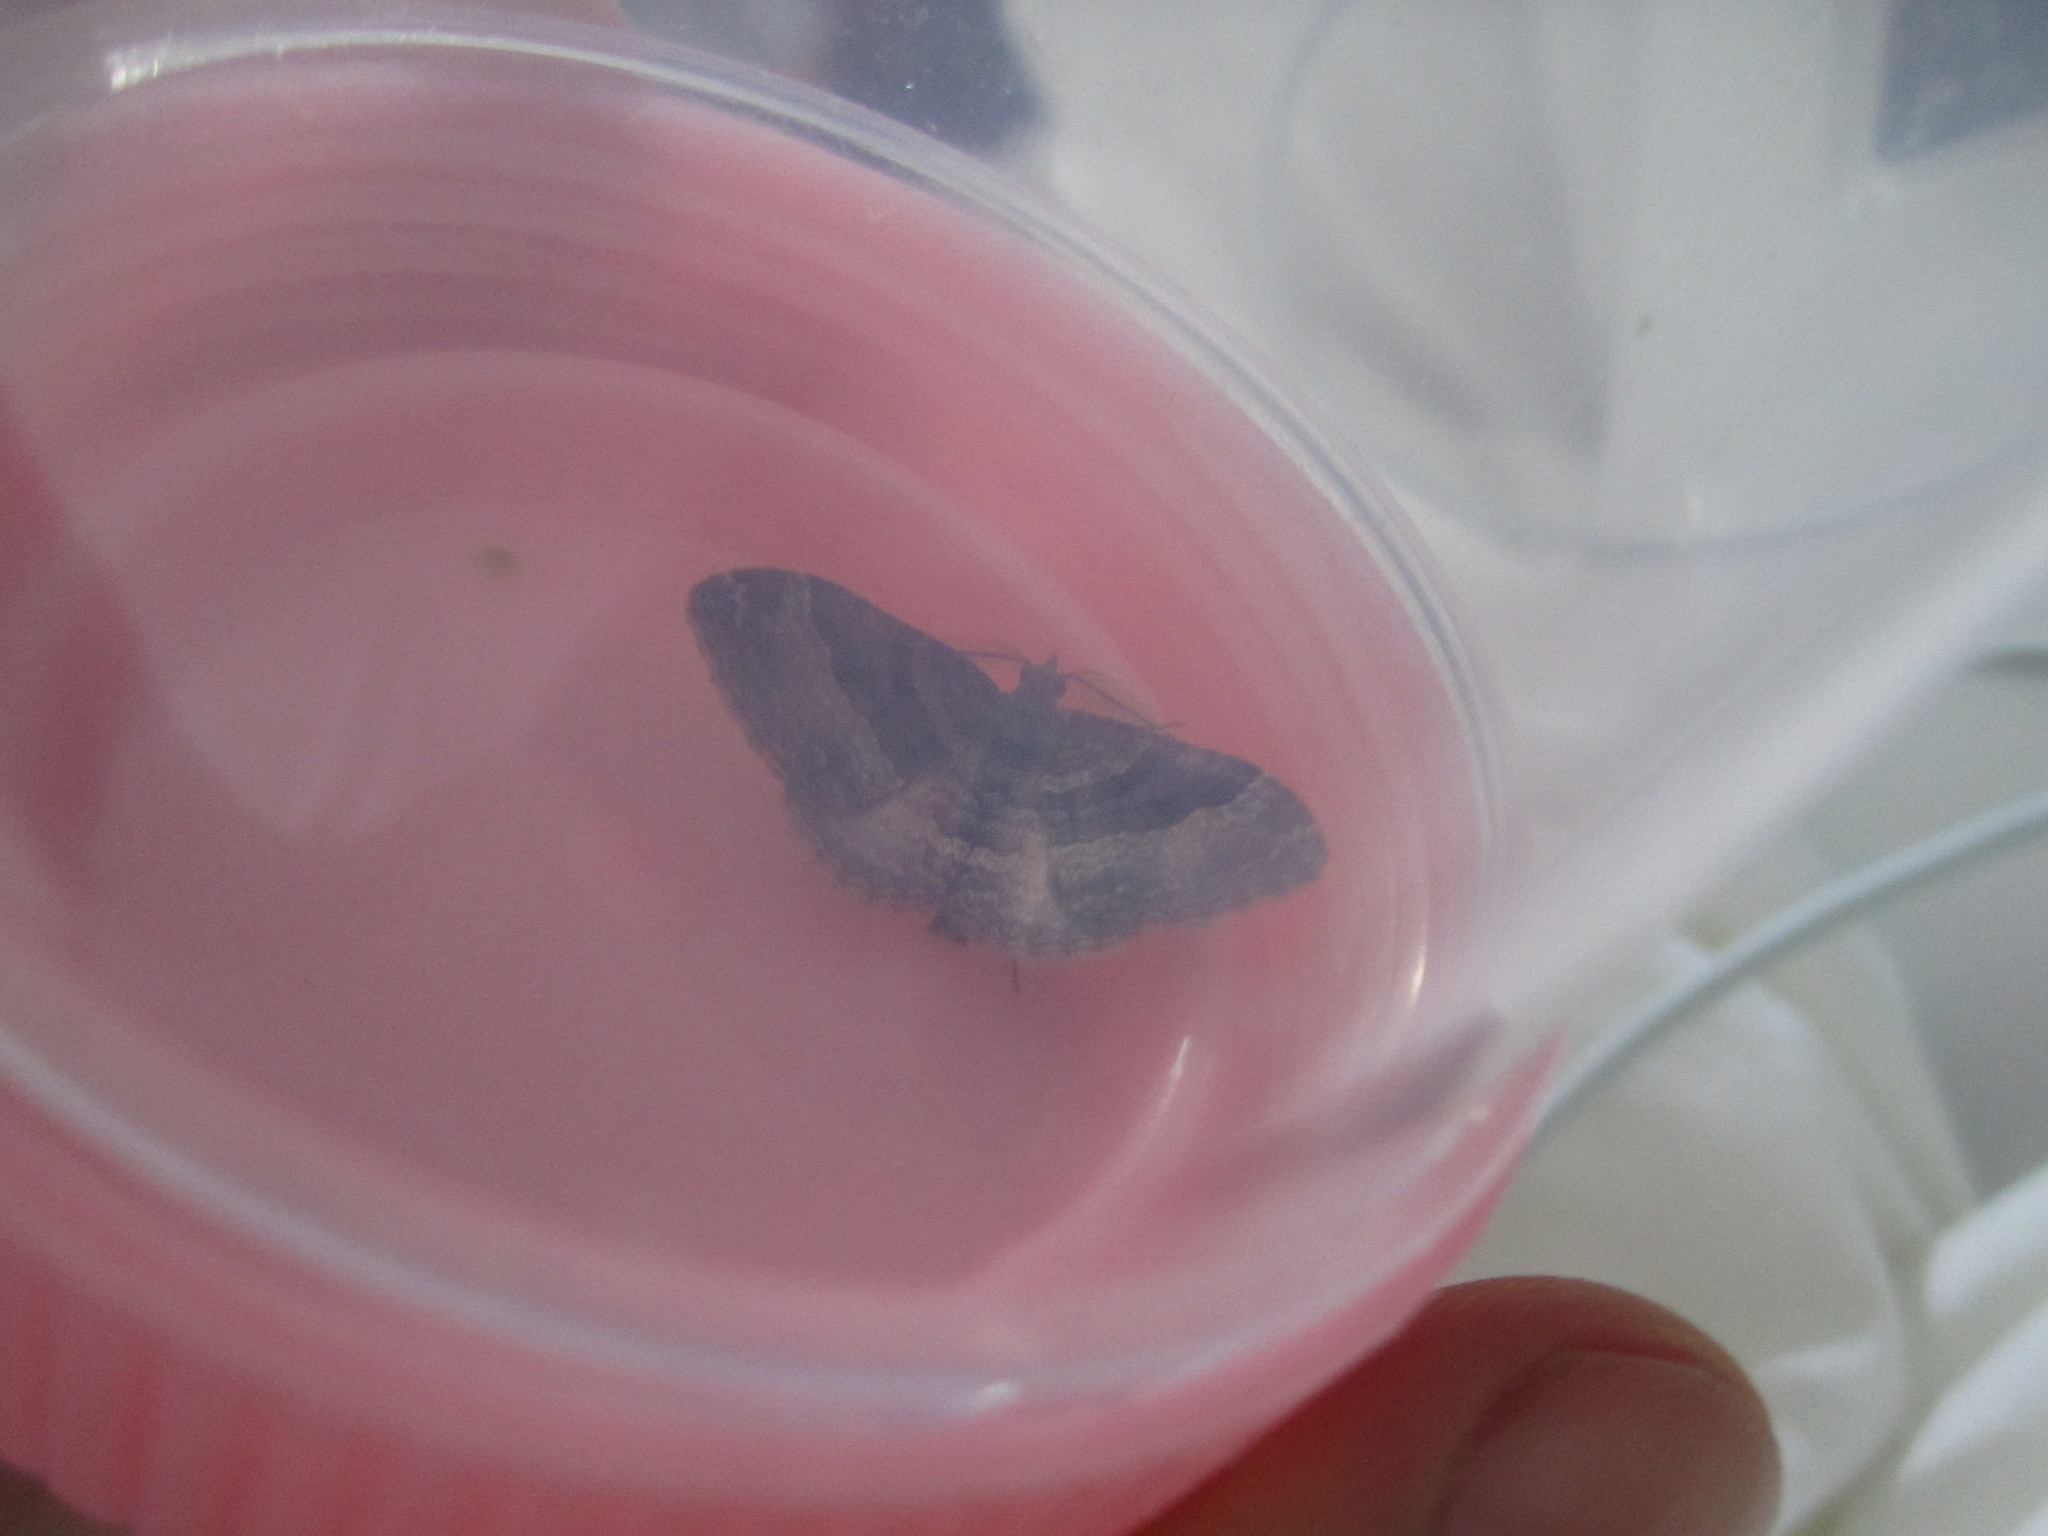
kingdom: Animalia
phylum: Arthropoda
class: Insecta
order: Lepidoptera
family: Geometridae
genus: Epyaxa
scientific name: Epyaxa lucidata
